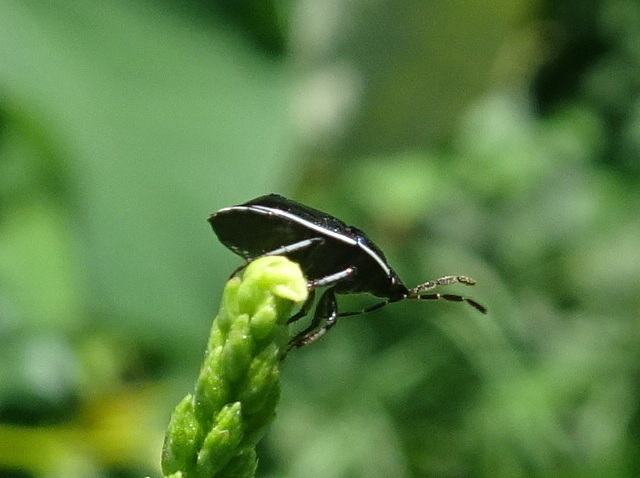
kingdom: Animalia
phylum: Arthropoda
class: Insecta
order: Hemiptera
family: Cydnidae
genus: Sehirus
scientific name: Sehirus cinctus
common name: White-margined burrower bug
